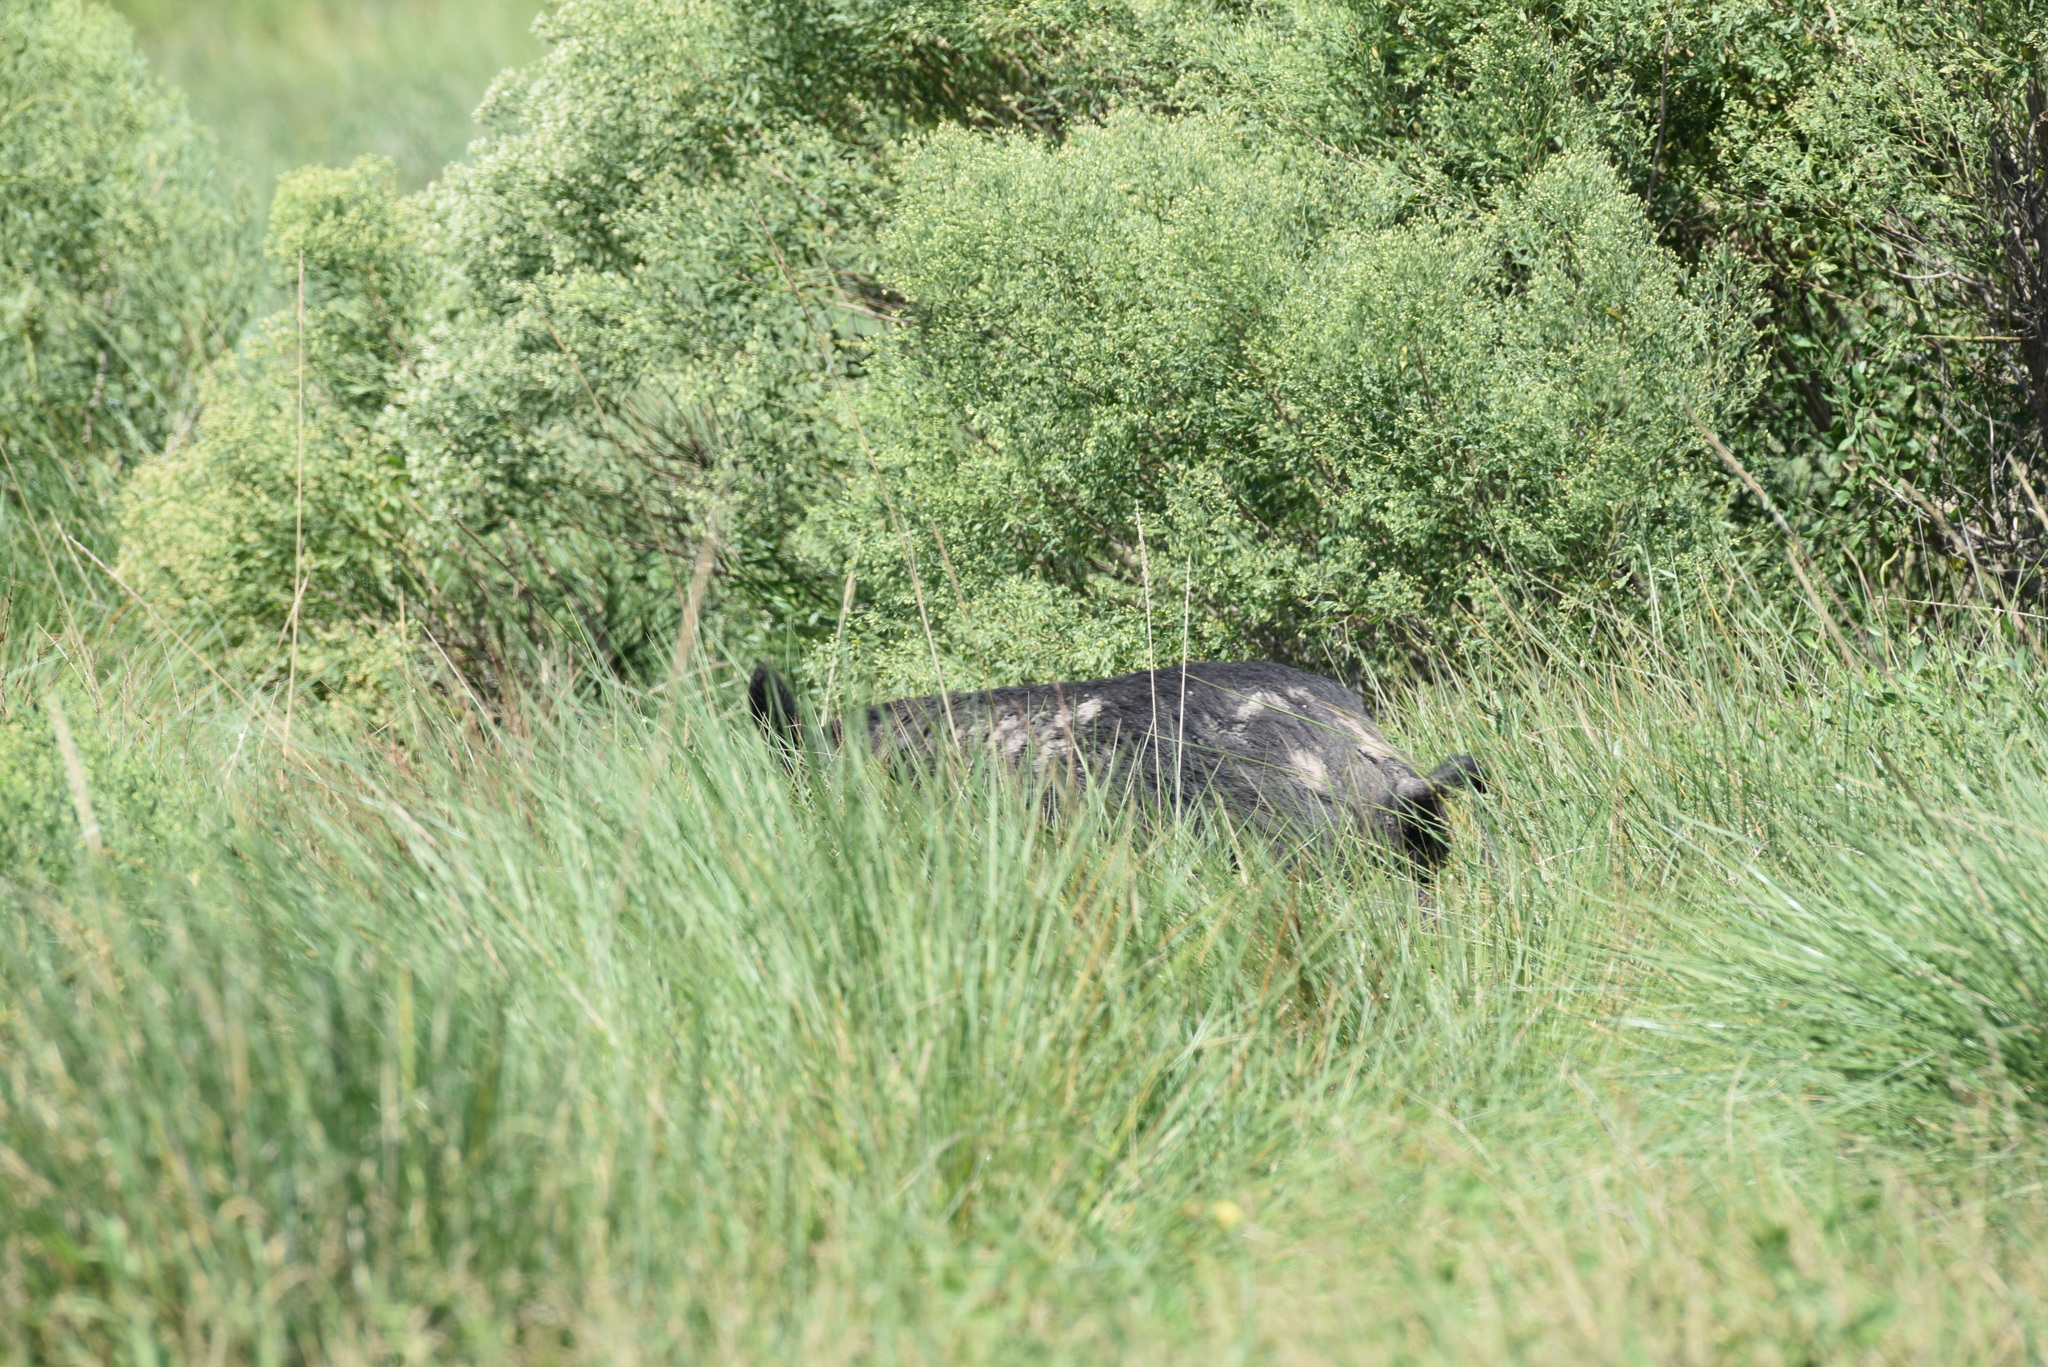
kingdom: Animalia
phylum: Chordata
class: Mammalia
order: Artiodactyla
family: Suidae
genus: Sus
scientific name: Sus scrofa
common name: Wild boar
